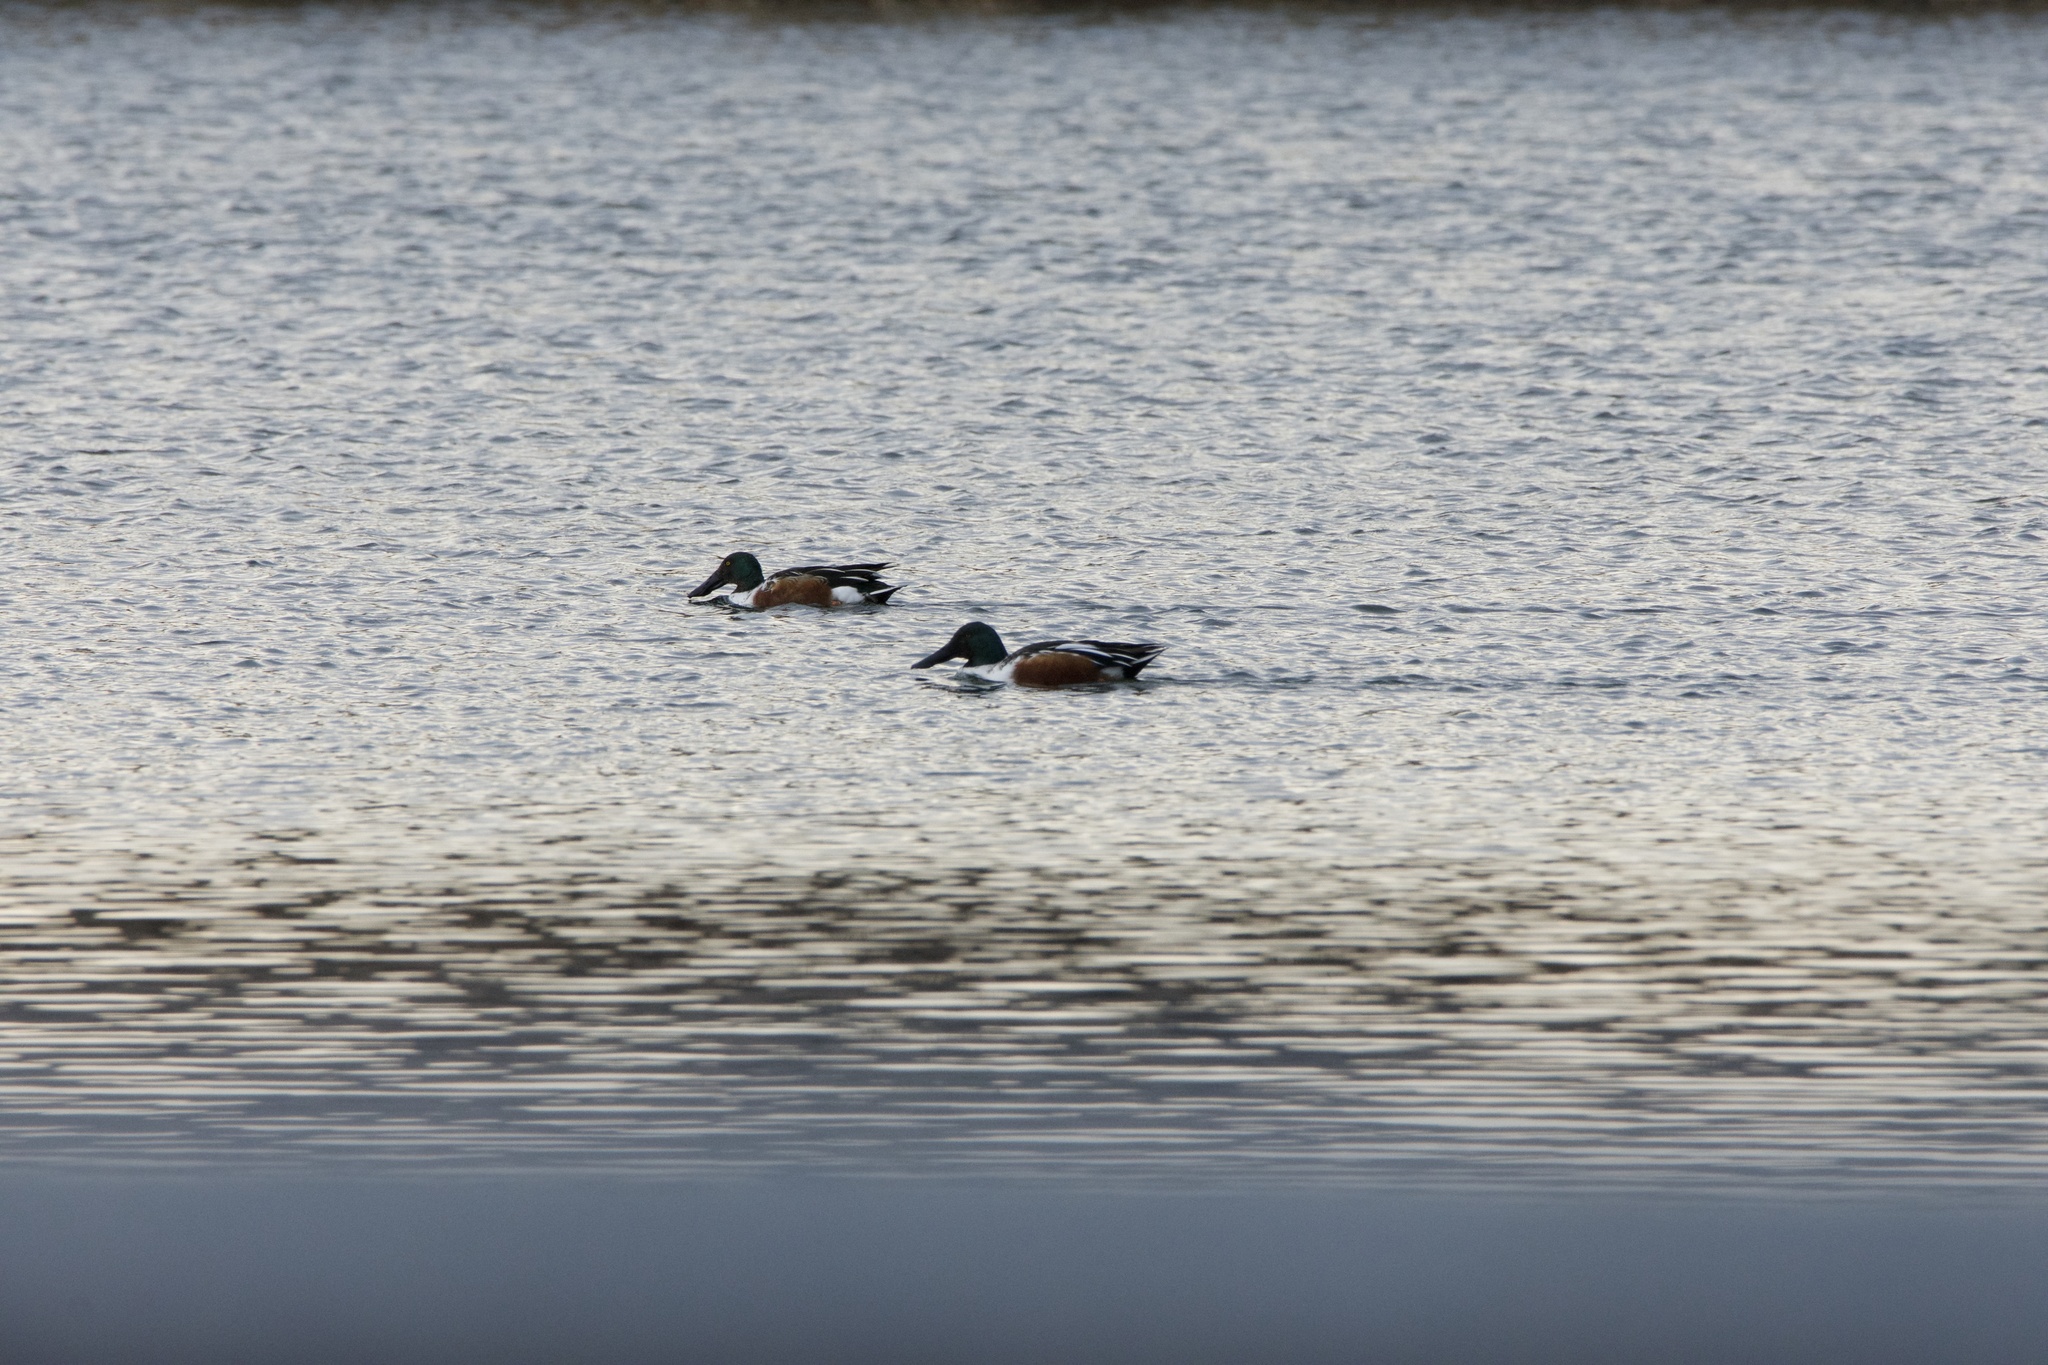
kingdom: Animalia
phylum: Chordata
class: Aves
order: Anseriformes
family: Anatidae
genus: Spatula
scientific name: Spatula clypeata
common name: Northern shoveler
